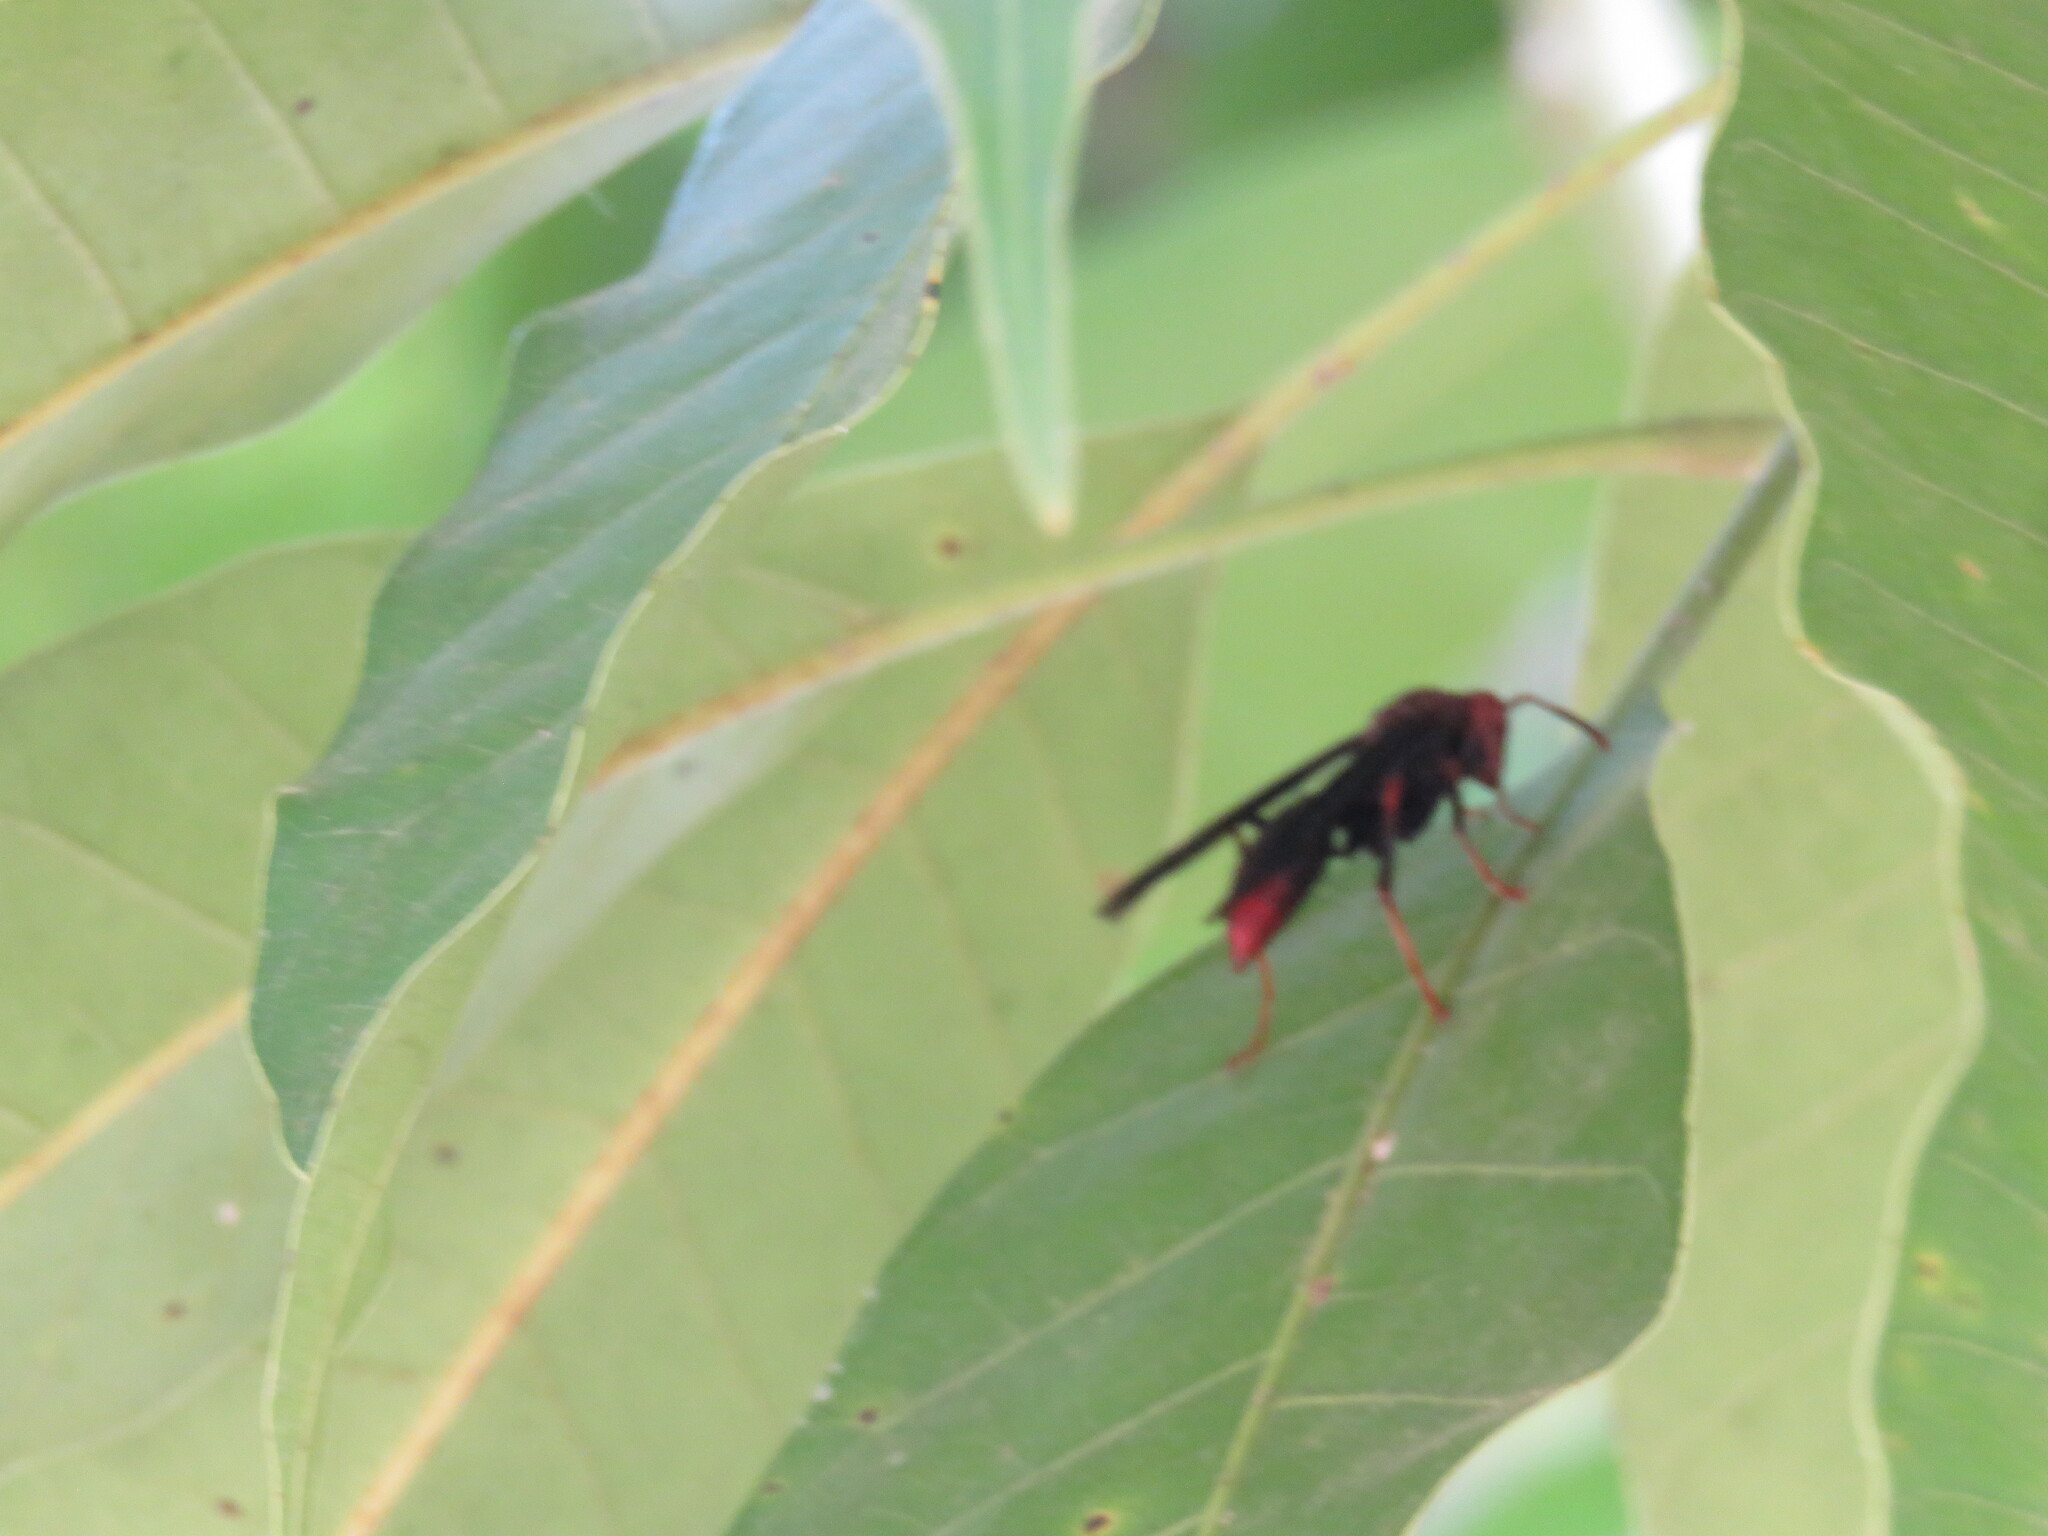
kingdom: Animalia
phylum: Arthropoda
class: Insecta
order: Hymenoptera
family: Eumenidae
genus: Polistes
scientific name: Polistes lanio
